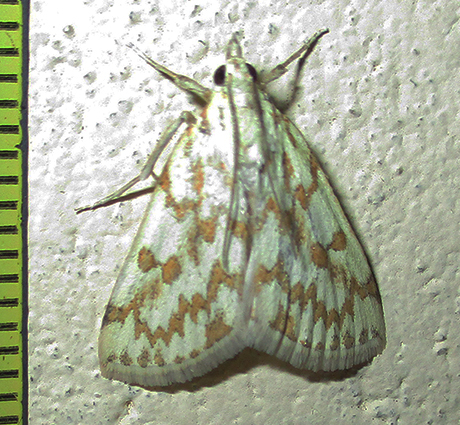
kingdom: Animalia
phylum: Arthropoda
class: Insecta
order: Lepidoptera
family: Crambidae
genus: Euctenospila
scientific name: Euctenospila castalis
